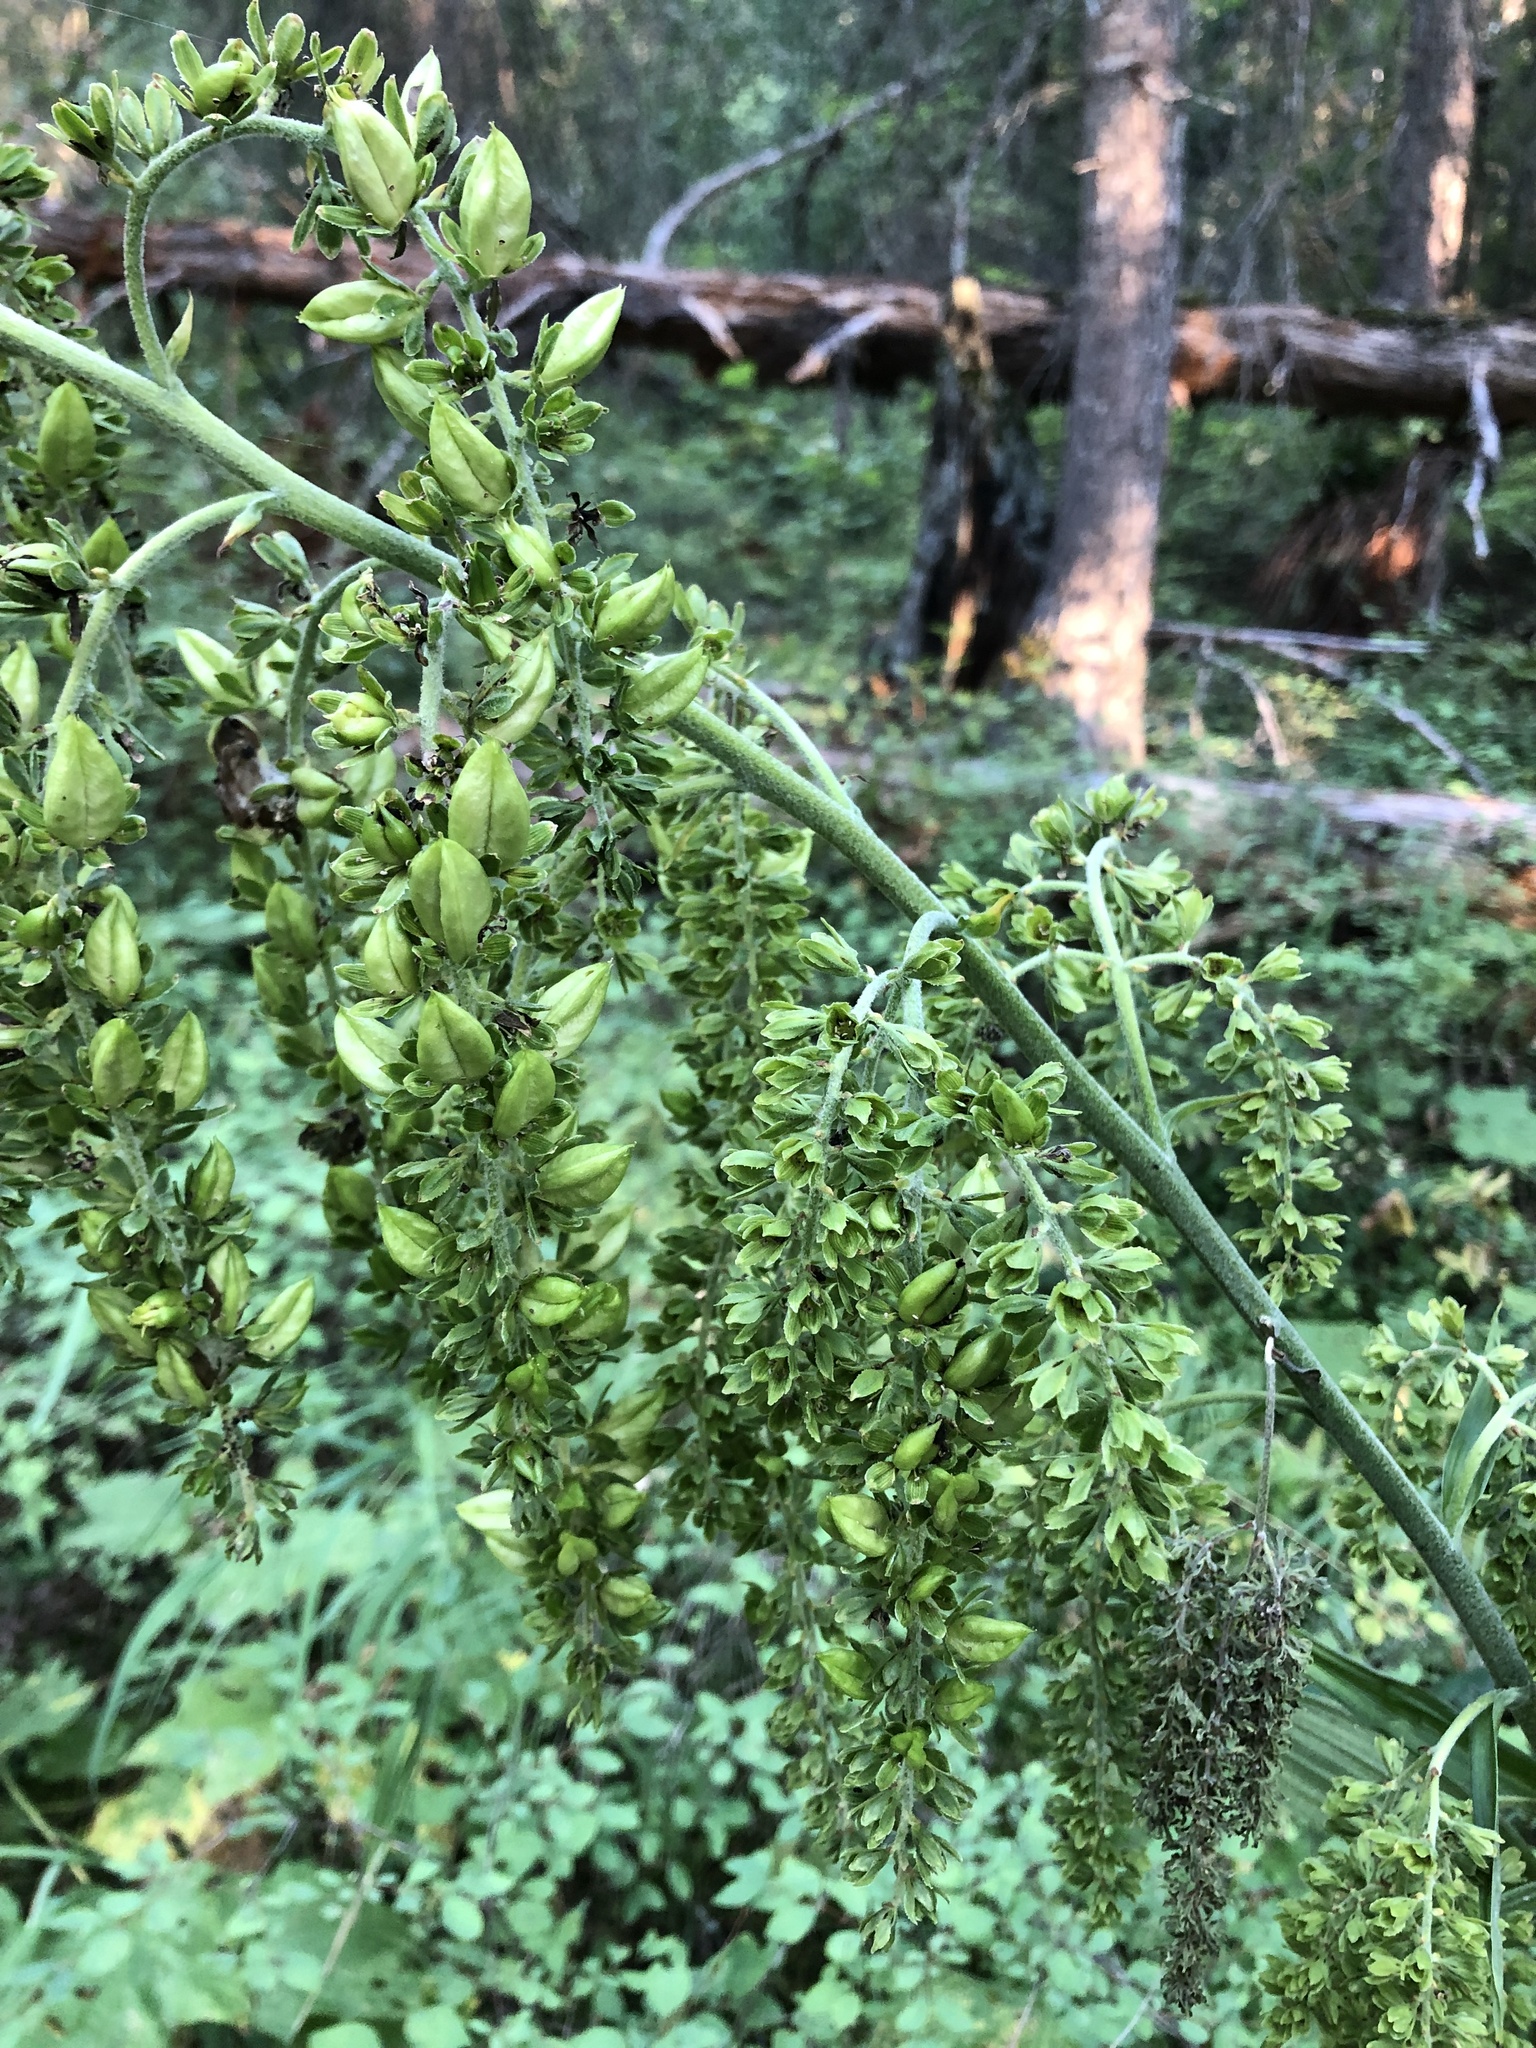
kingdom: Plantae
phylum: Tracheophyta
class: Liliopsida
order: Liliales
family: Melanthiaceae
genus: Veratrum
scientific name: Veratrum viride
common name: American false hellebore
